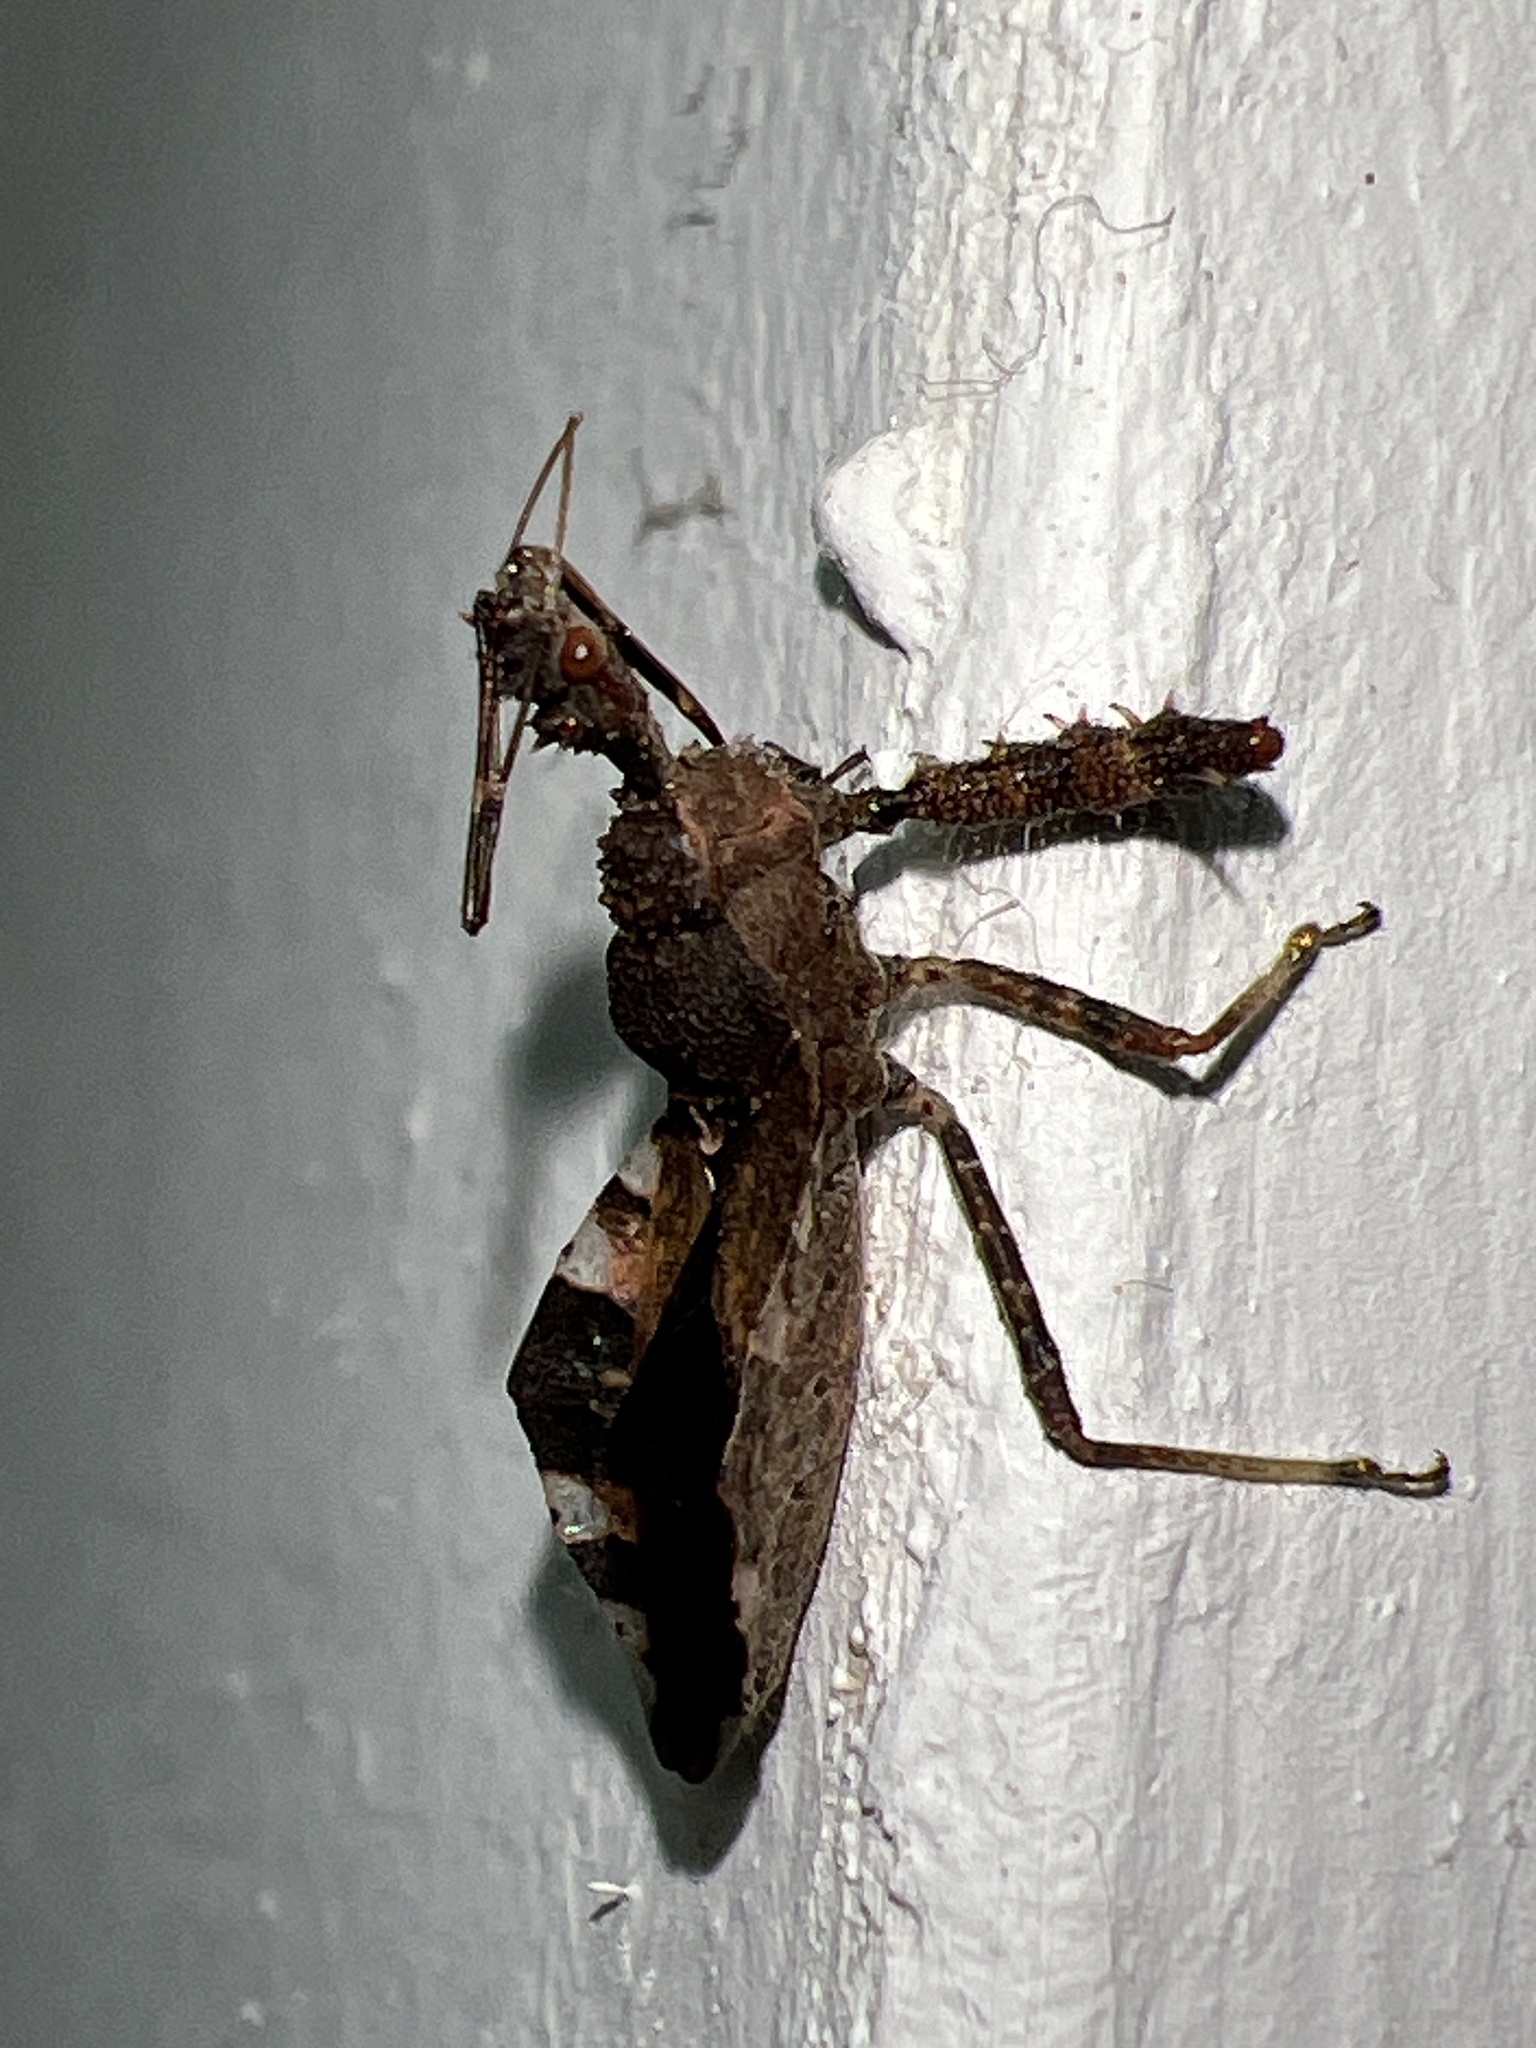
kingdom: Animalia
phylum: Arthropoda
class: Insecta
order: Hemiptera
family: Reduviidae
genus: Sinea
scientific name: Sinea spinipes
